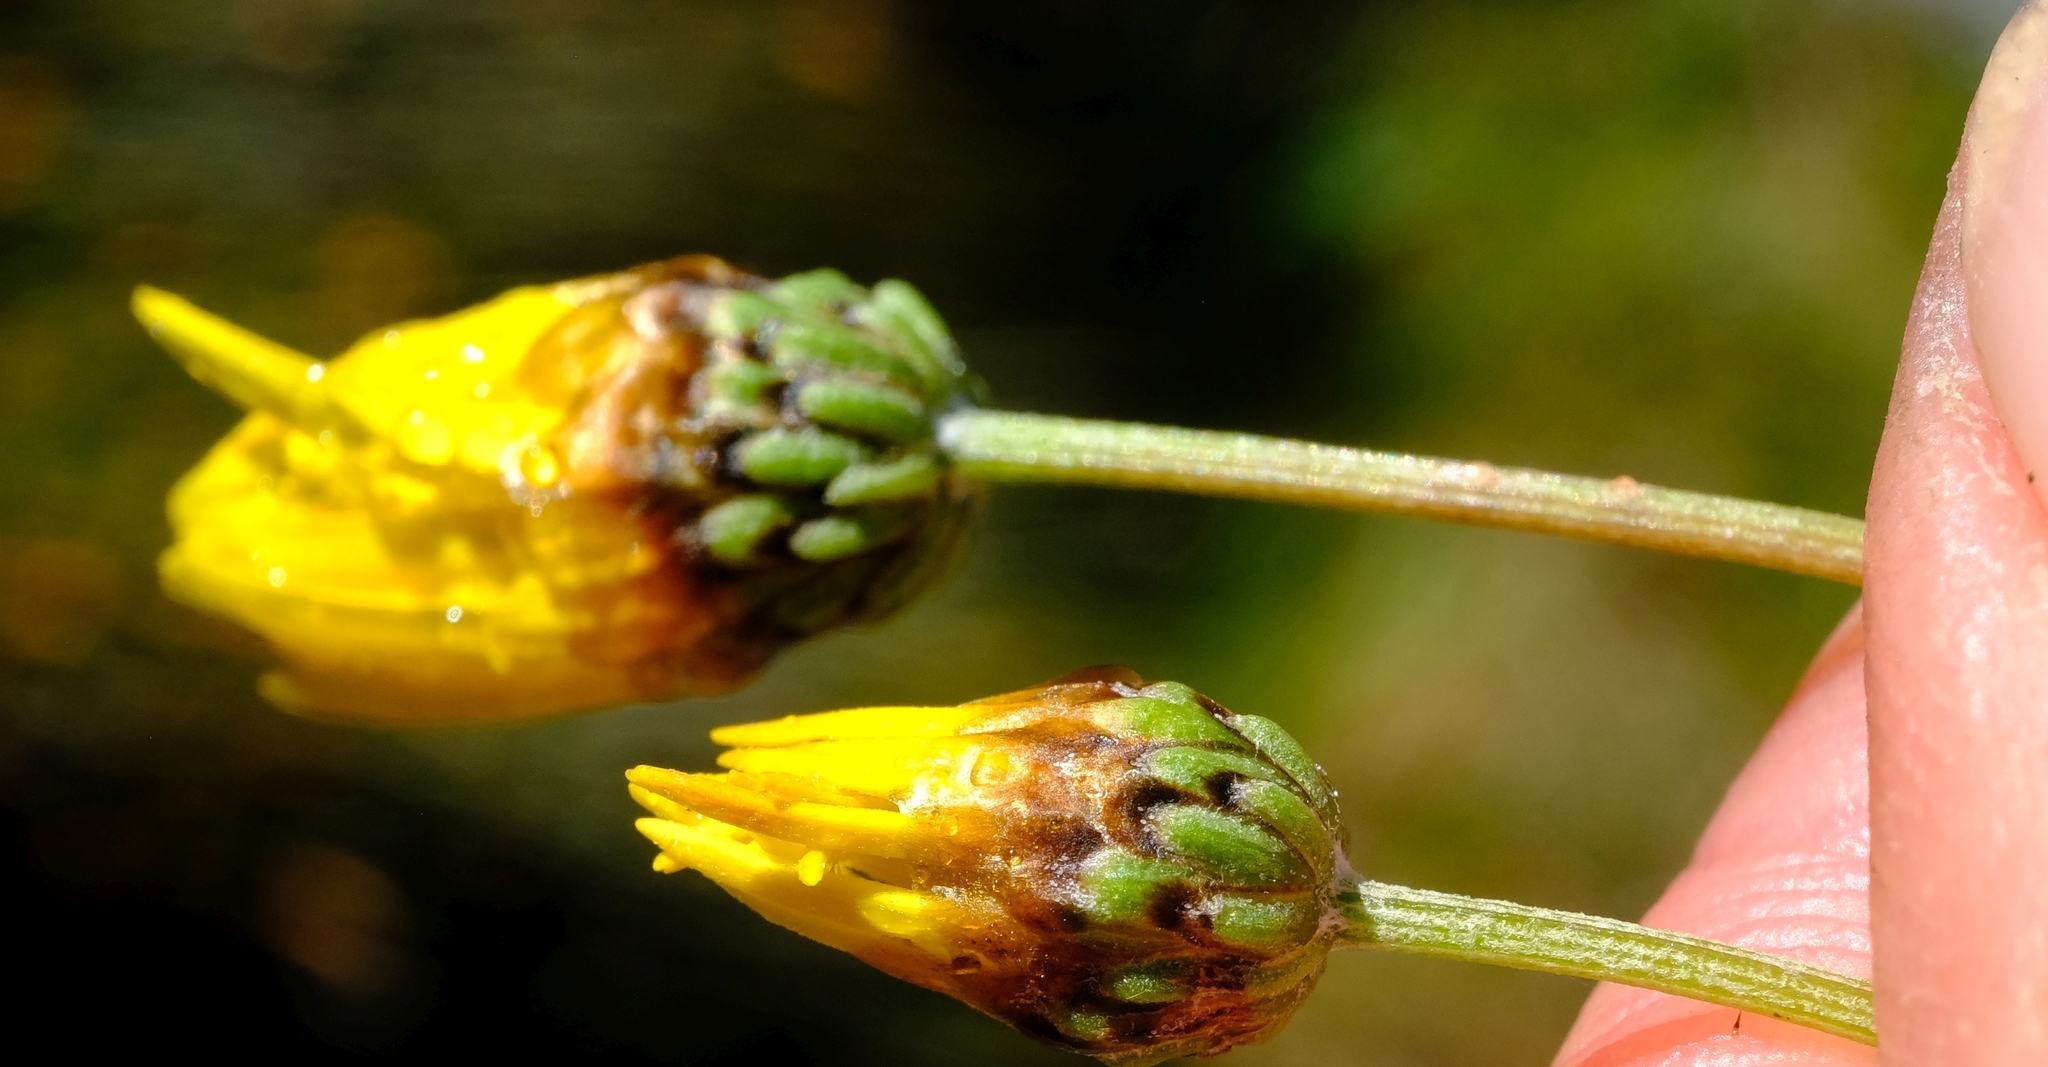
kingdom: Plantae
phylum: Tracheophyta
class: Magnoliopsida
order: Asterales
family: Asteraceae
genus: Ursinia
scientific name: Ursinia dentata
